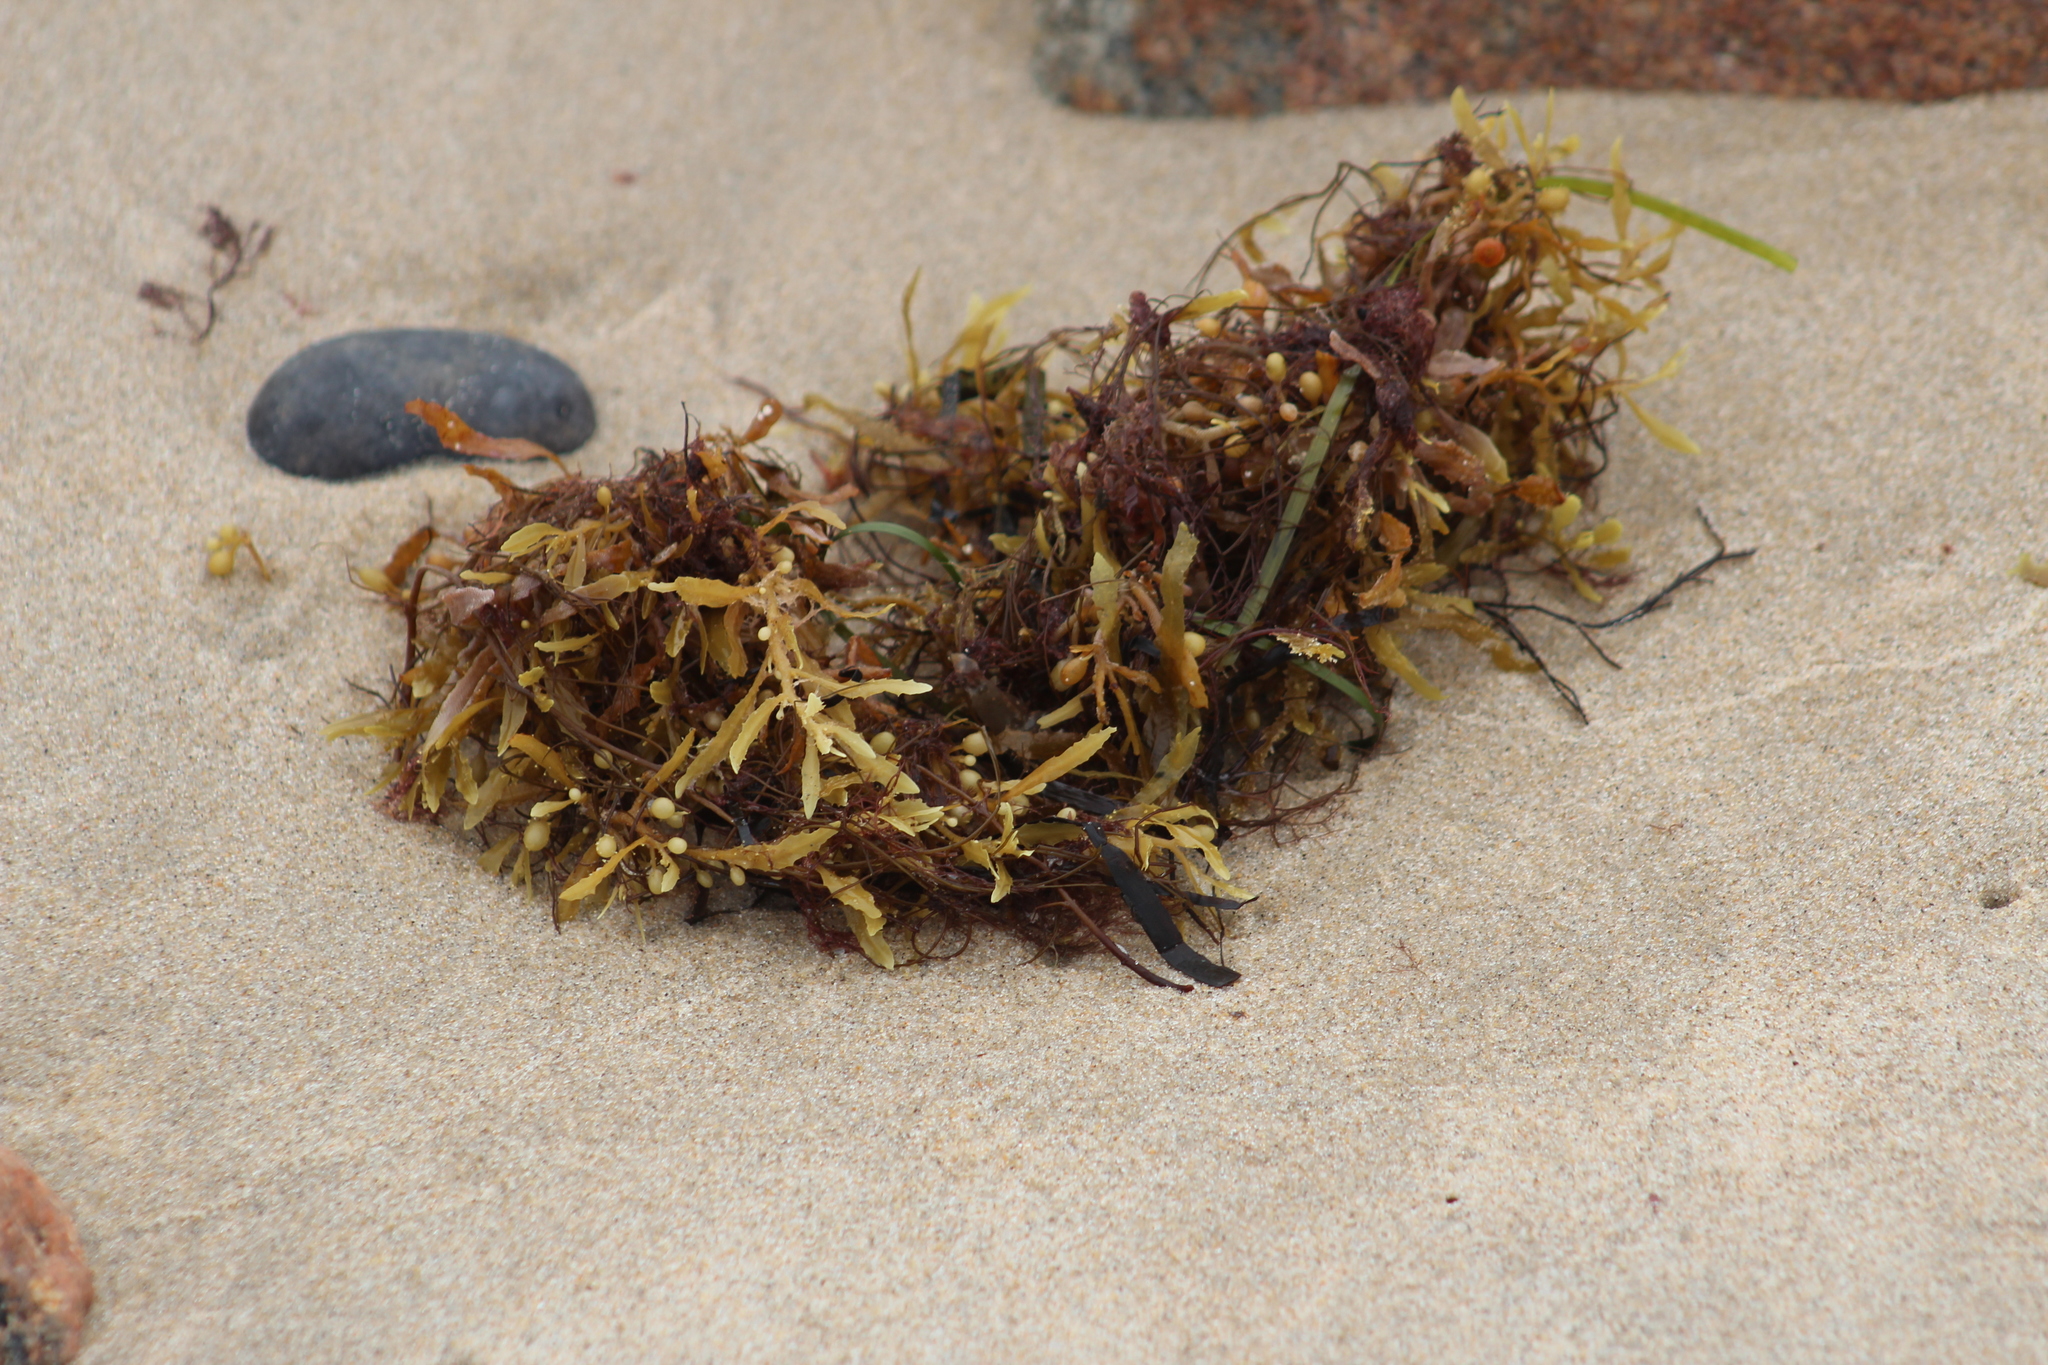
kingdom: Chromista
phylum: Ochrophyta
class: Phaeophyceae
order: Fucales
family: Sargassaceae
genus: Sargassum
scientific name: Sargassum fluitans
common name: Sargassum seaweed
